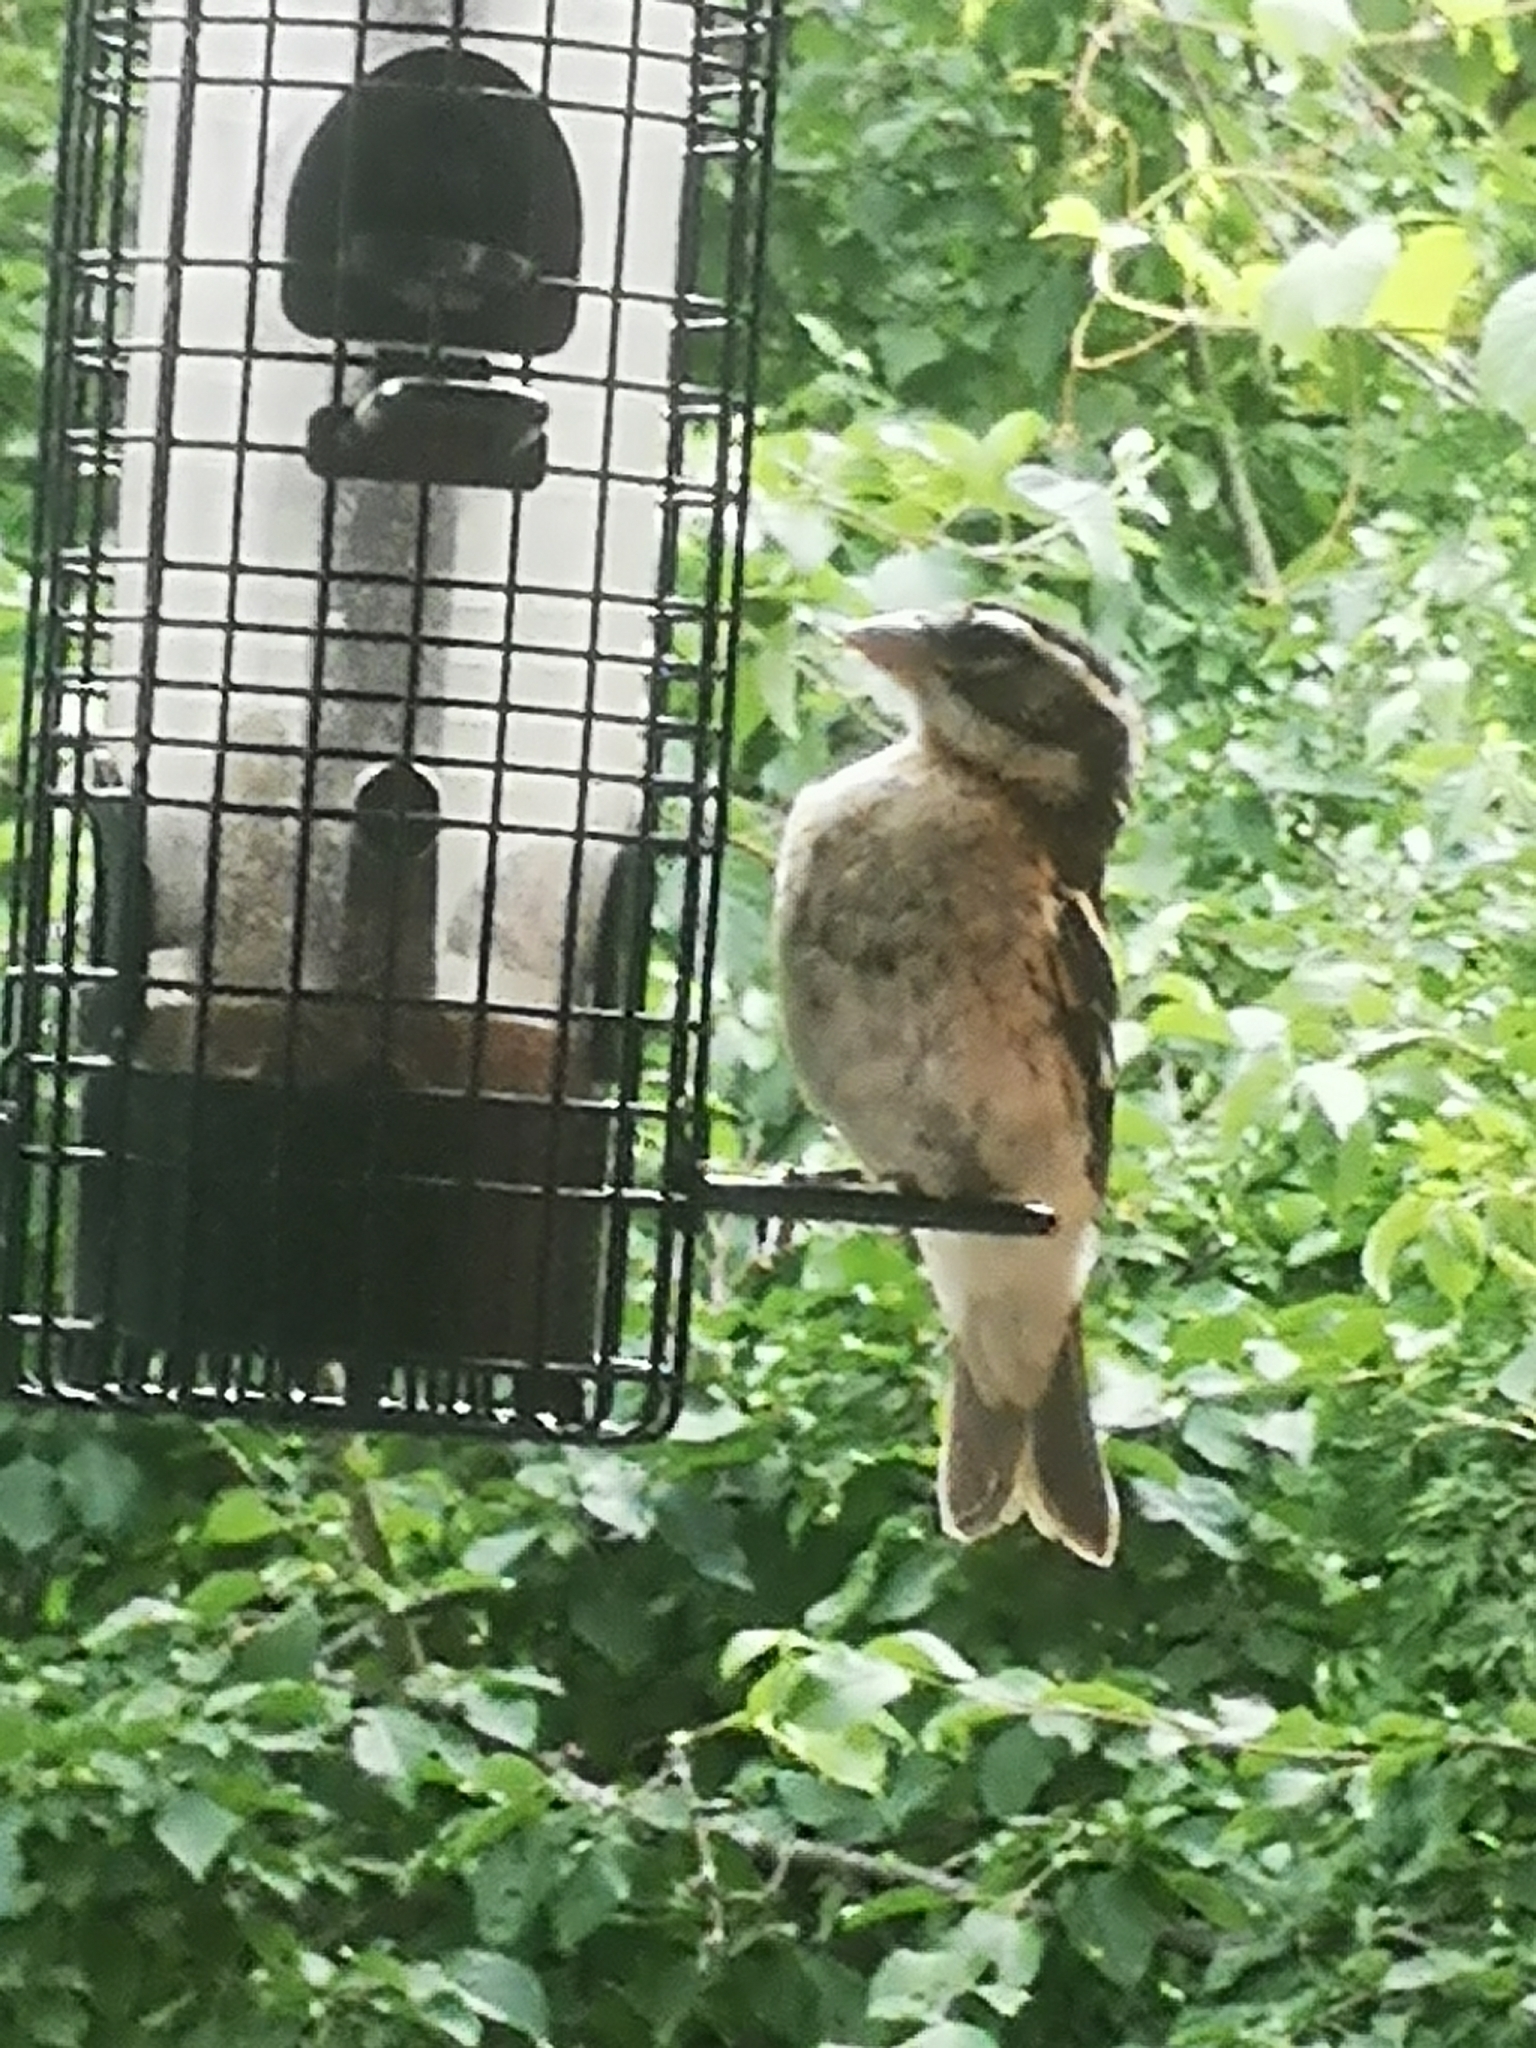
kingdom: Animalia
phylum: Chordata
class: Aves
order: Passeriformes
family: Cardinalidae
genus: Pheucticus
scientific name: Pheucticus ludovicianus
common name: Rose-breasted grosbeak
